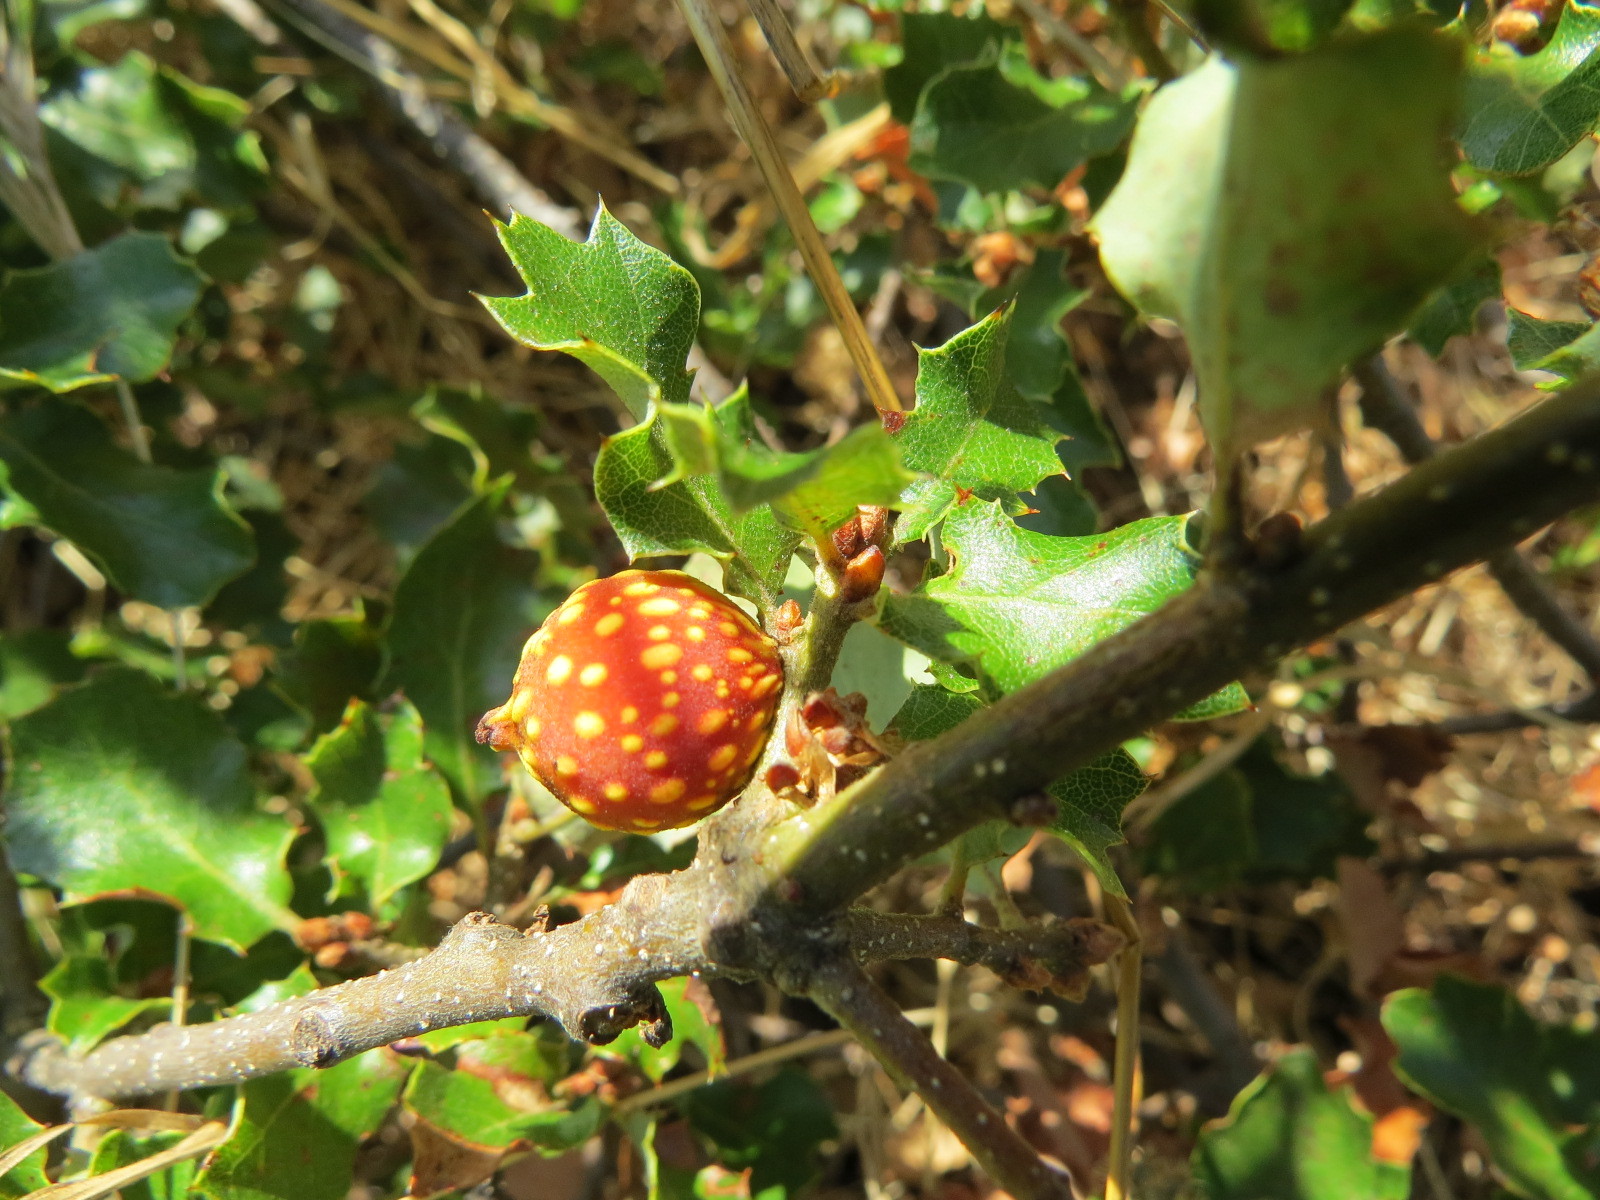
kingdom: Animalia
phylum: Arthropoda
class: Insecta
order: Hymenoptera
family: Cynipidae
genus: Burnettweldia
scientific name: Burnettweldia
